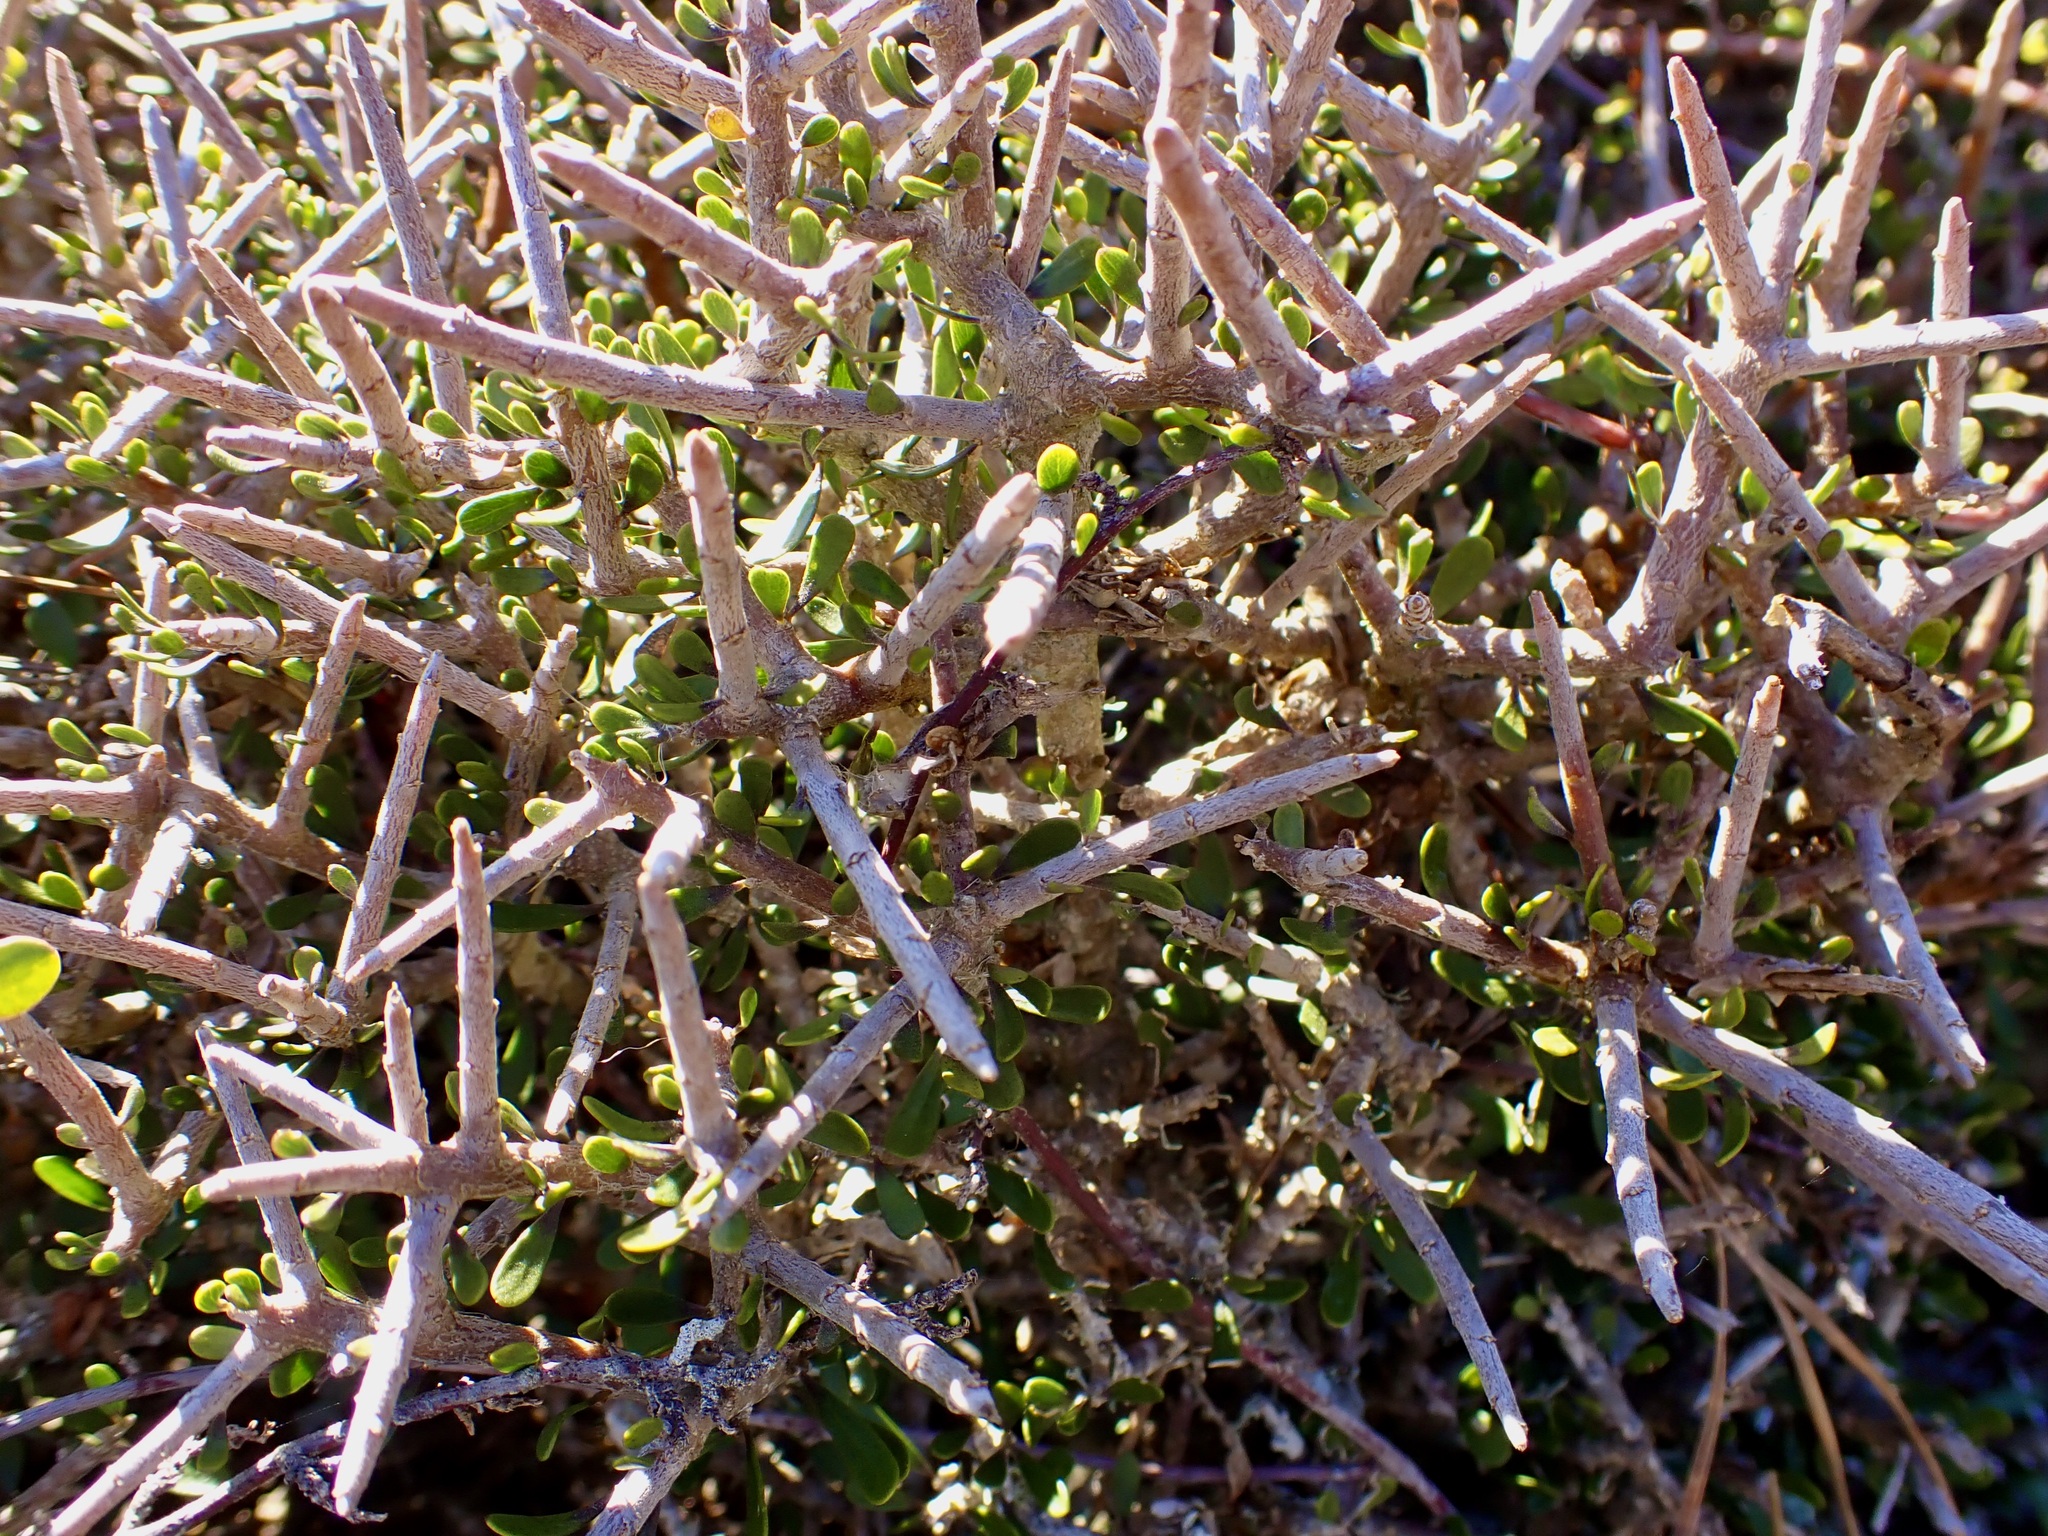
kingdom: Plantae
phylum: Tracheophyta
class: Magnoliopsida
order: Malpighiales
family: Violaceae
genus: Melicytus
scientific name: Melicytus alpinus
